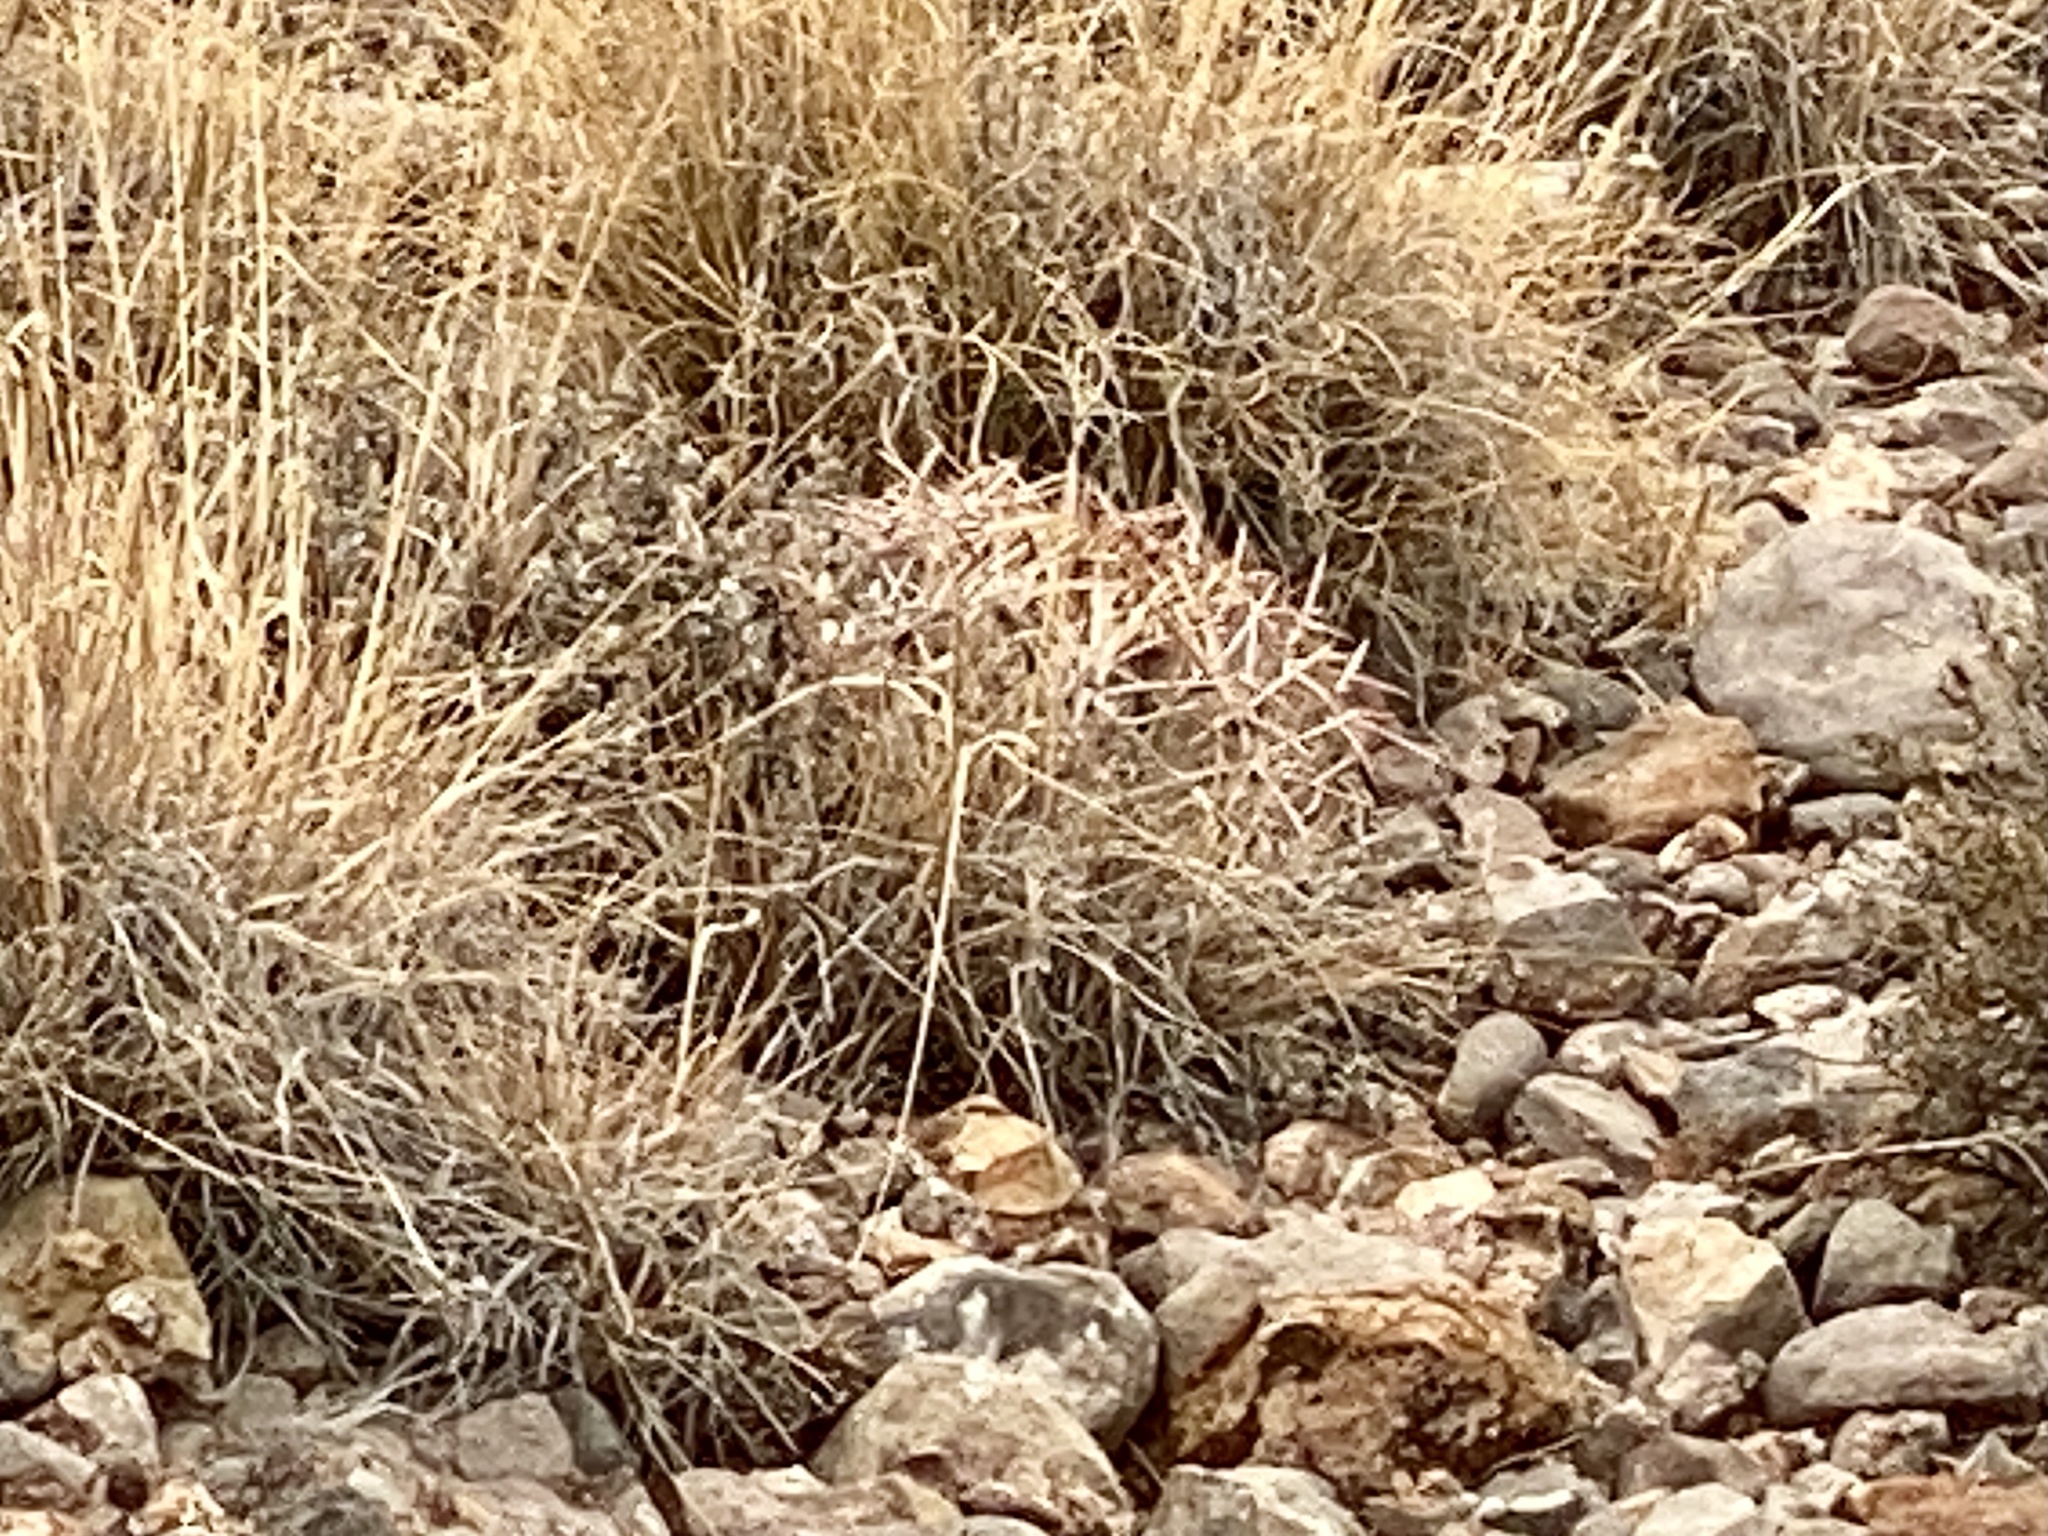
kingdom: Plantae
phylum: Tracheophyta
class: Magnoliopsida
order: Caryophyllales
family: Cactaceae
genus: Echinocactus
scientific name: Echinocactus horizonthalonius
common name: Devilshead
